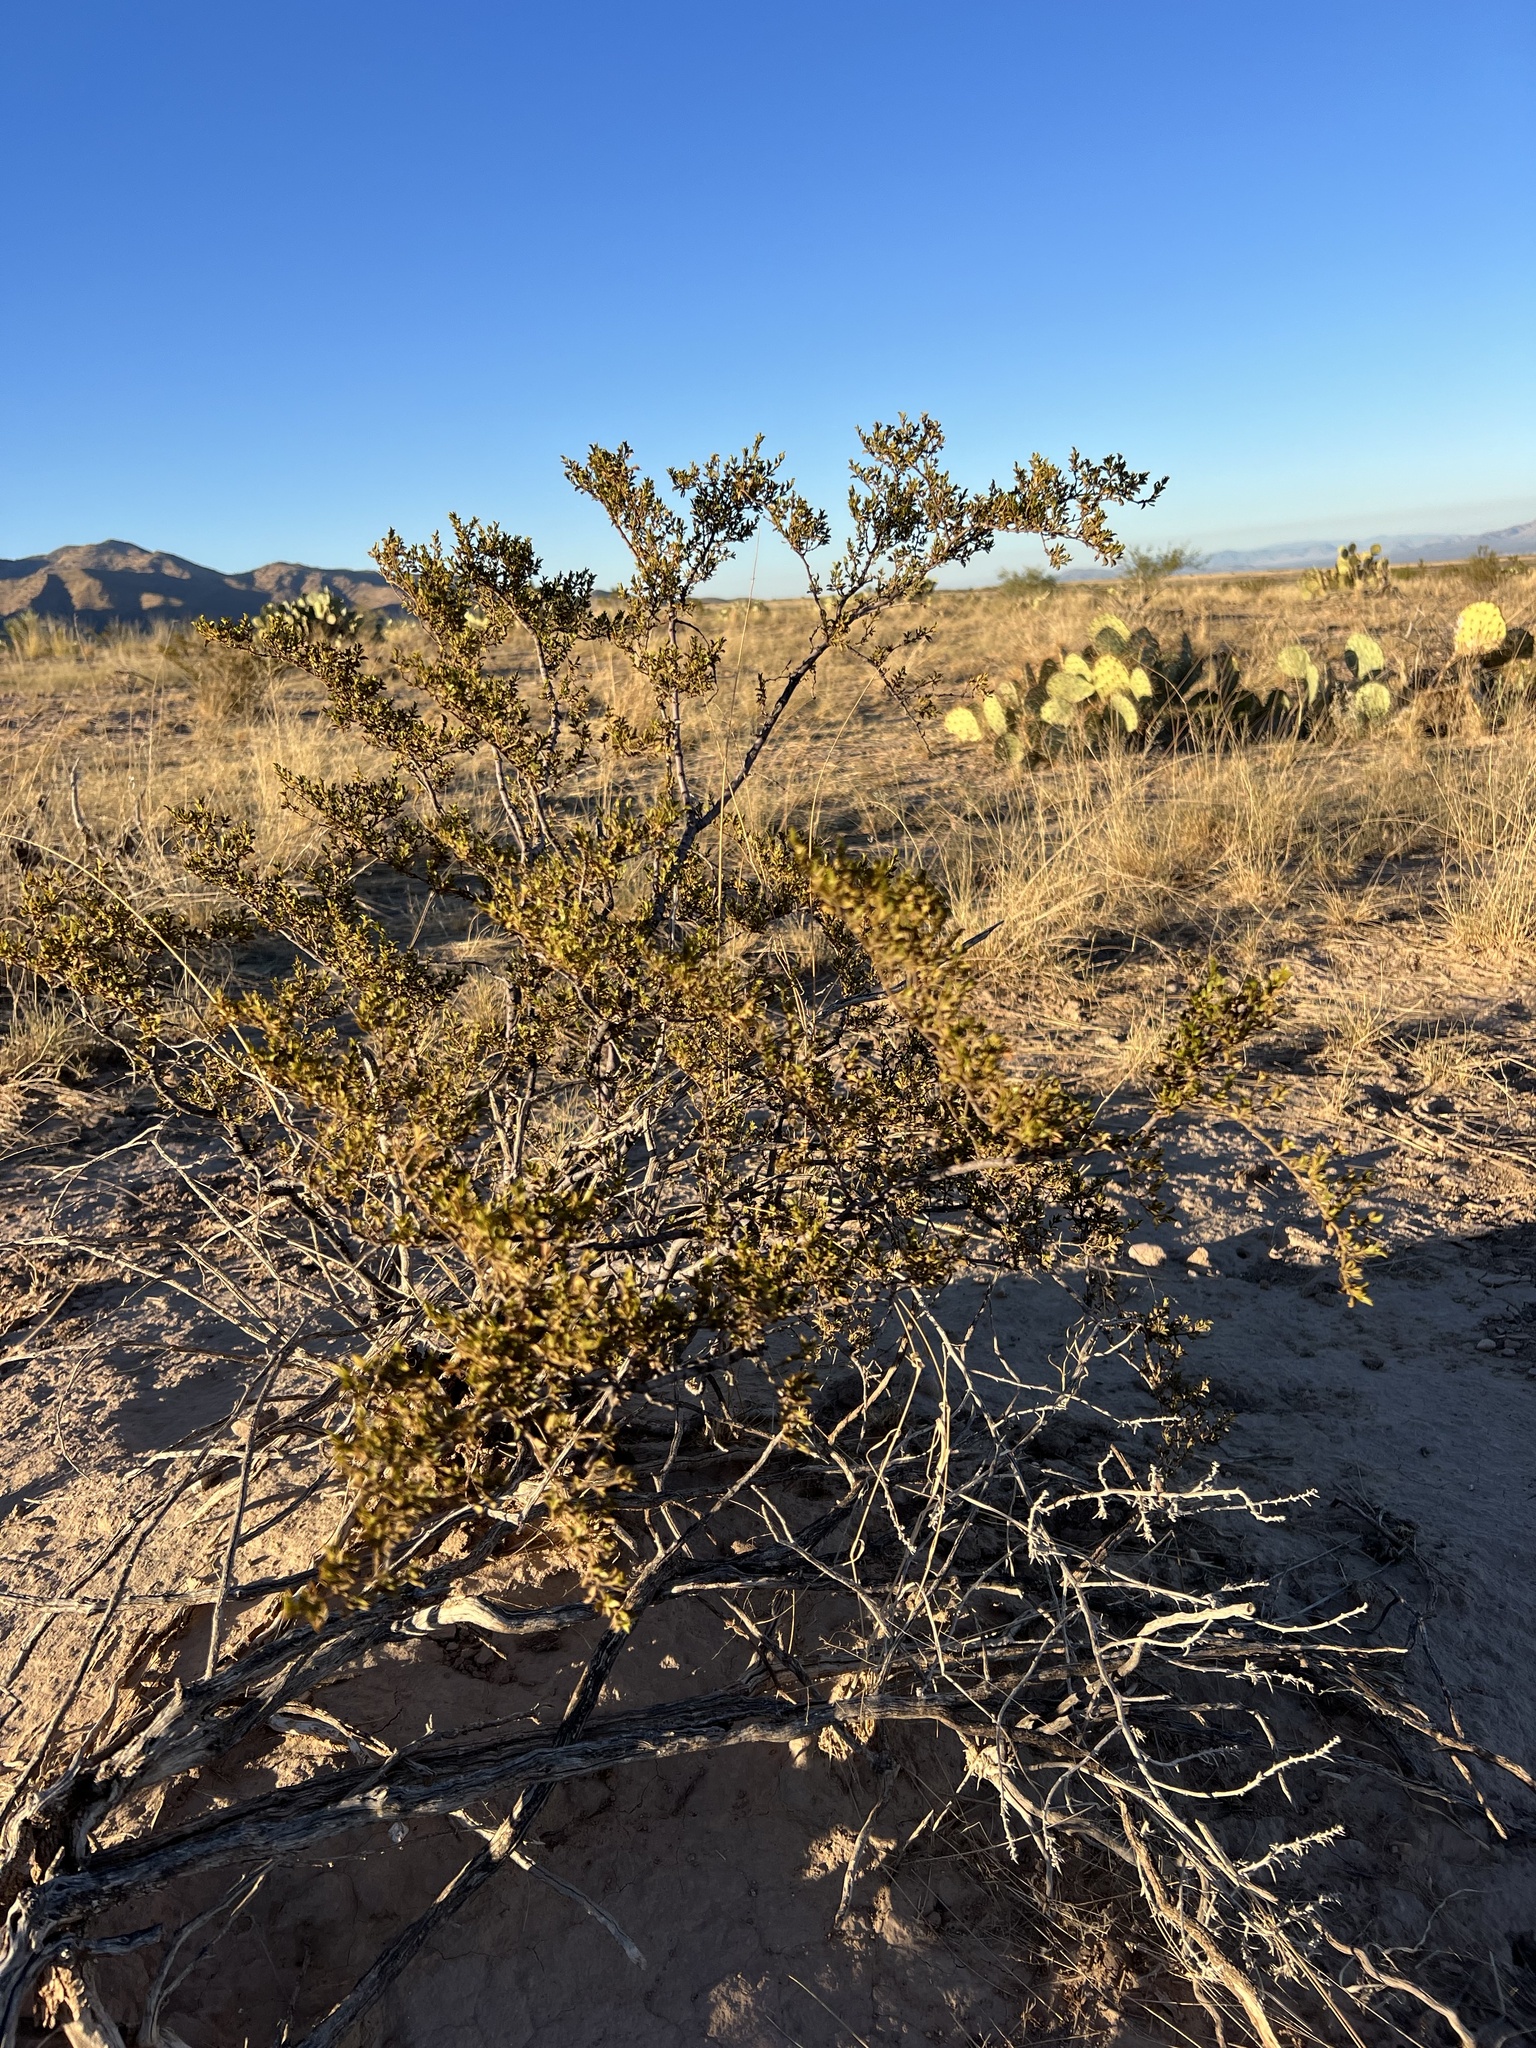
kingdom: Plantae
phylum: Tracheophyta
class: Magnoliopsida
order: Zygophyllales
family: Zygophyllaceae
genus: Larrea
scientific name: Larrea tridentata
